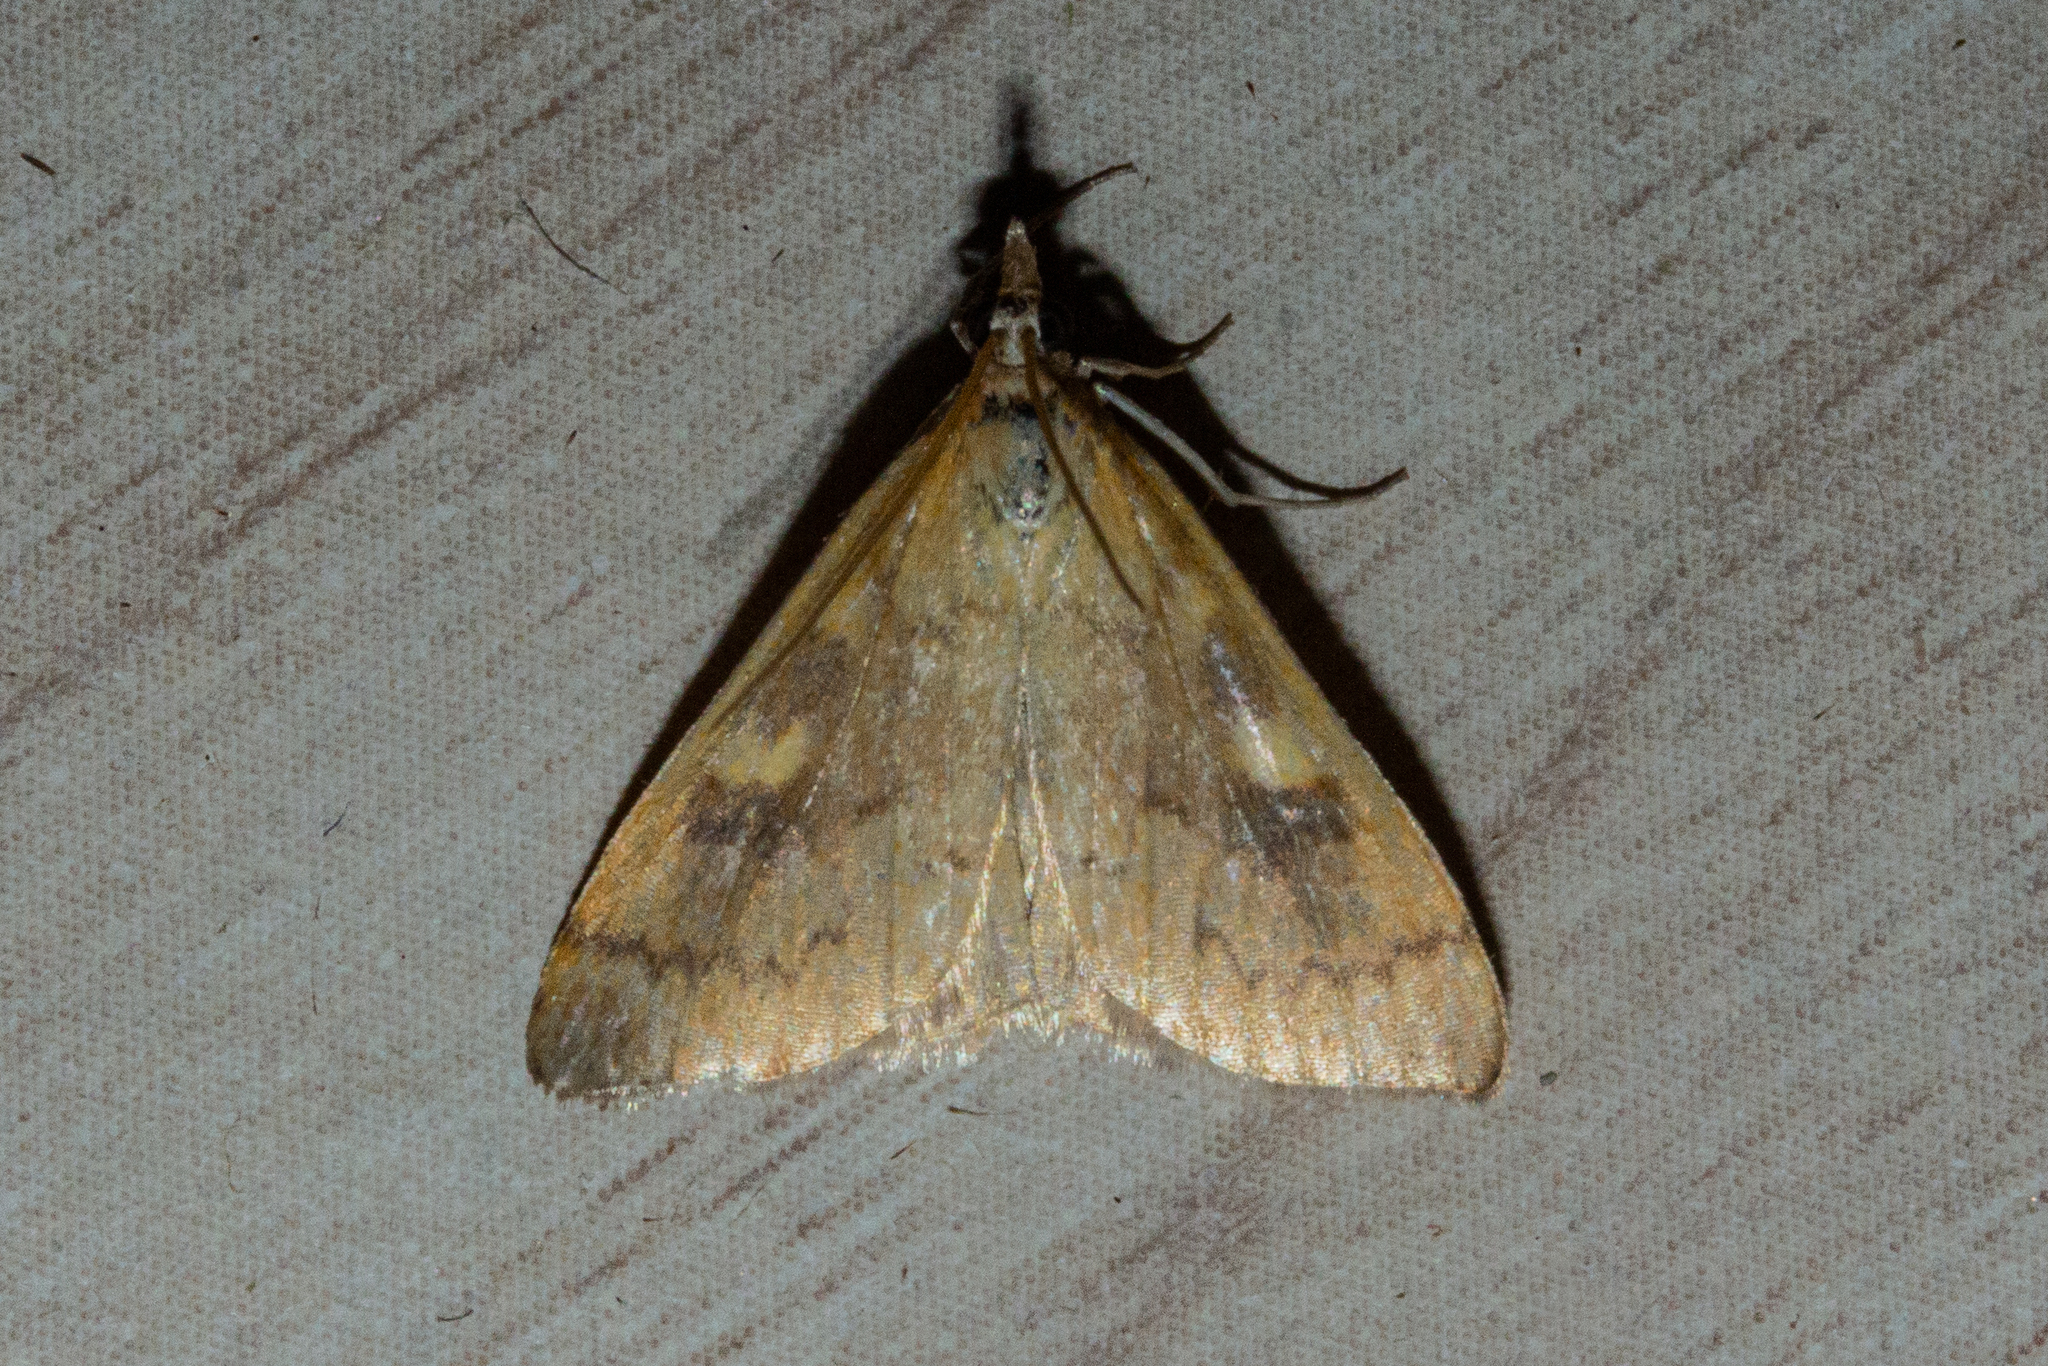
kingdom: Animalia
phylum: Arthropoda
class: Insecta
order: Lepidoptera
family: Crambidae
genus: Udea
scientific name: Udea Mnesictena flavidalis
